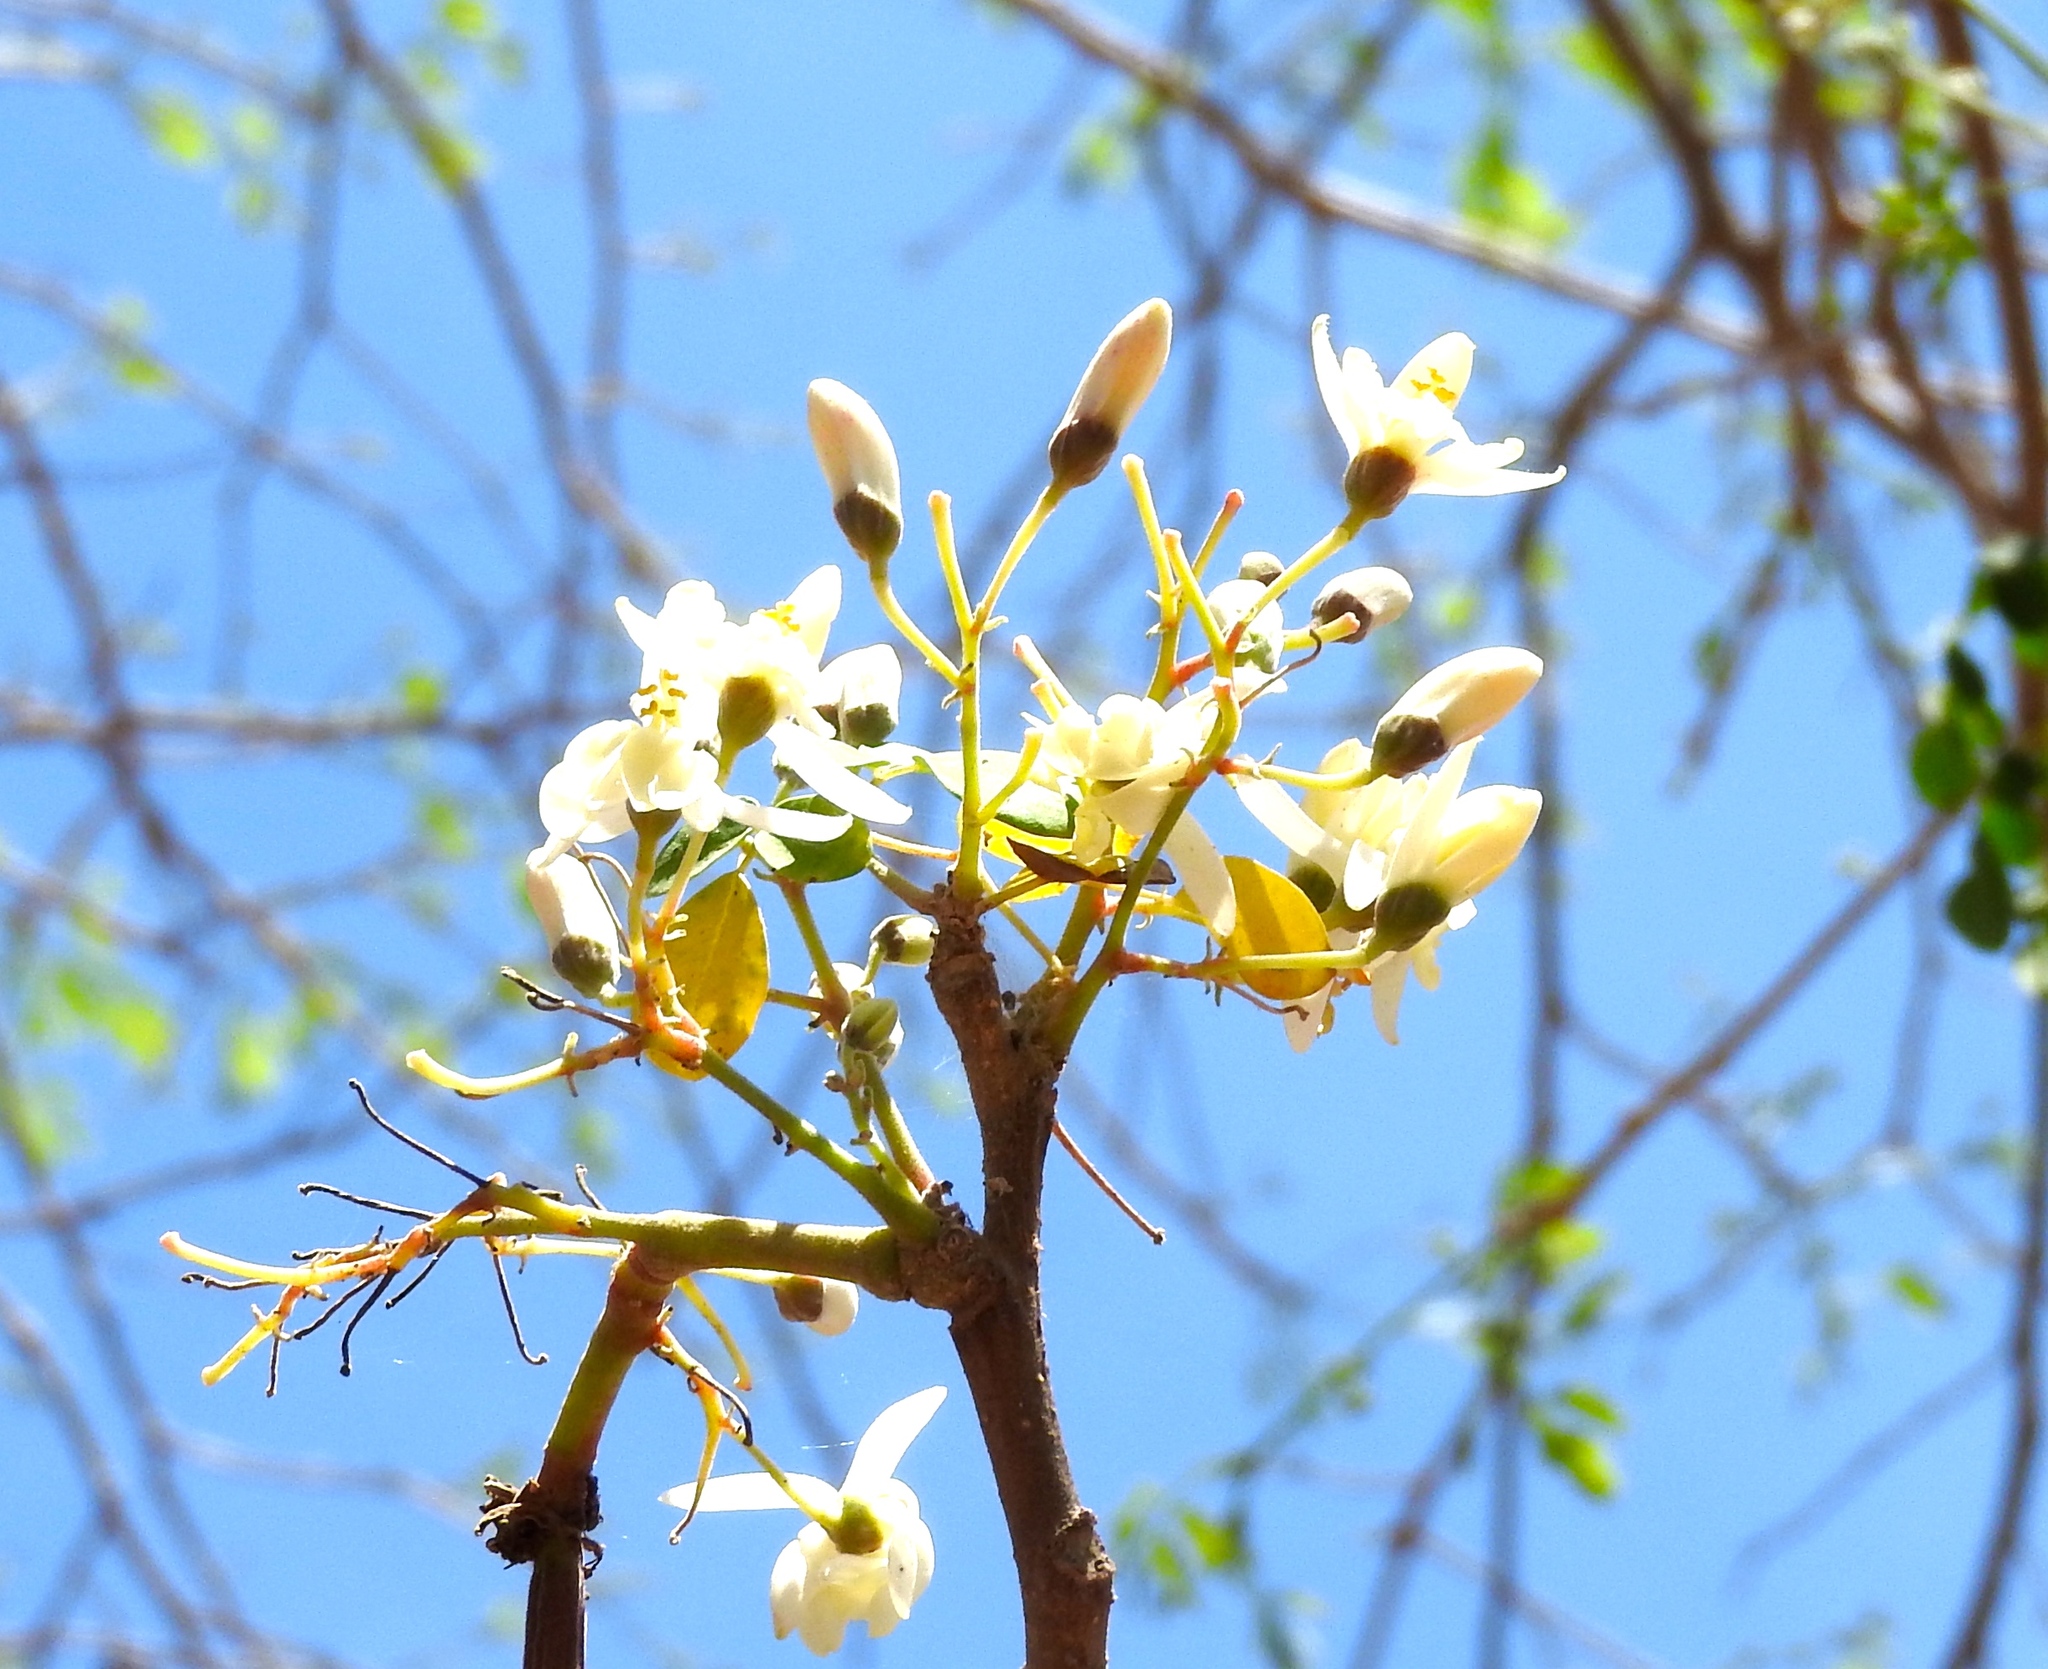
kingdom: Plantae
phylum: Tracheophyta
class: Magnoliopsida
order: Brassicales
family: Moringaceae
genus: Moringa
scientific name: Moringa oleifera
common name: Horseradish-tree
